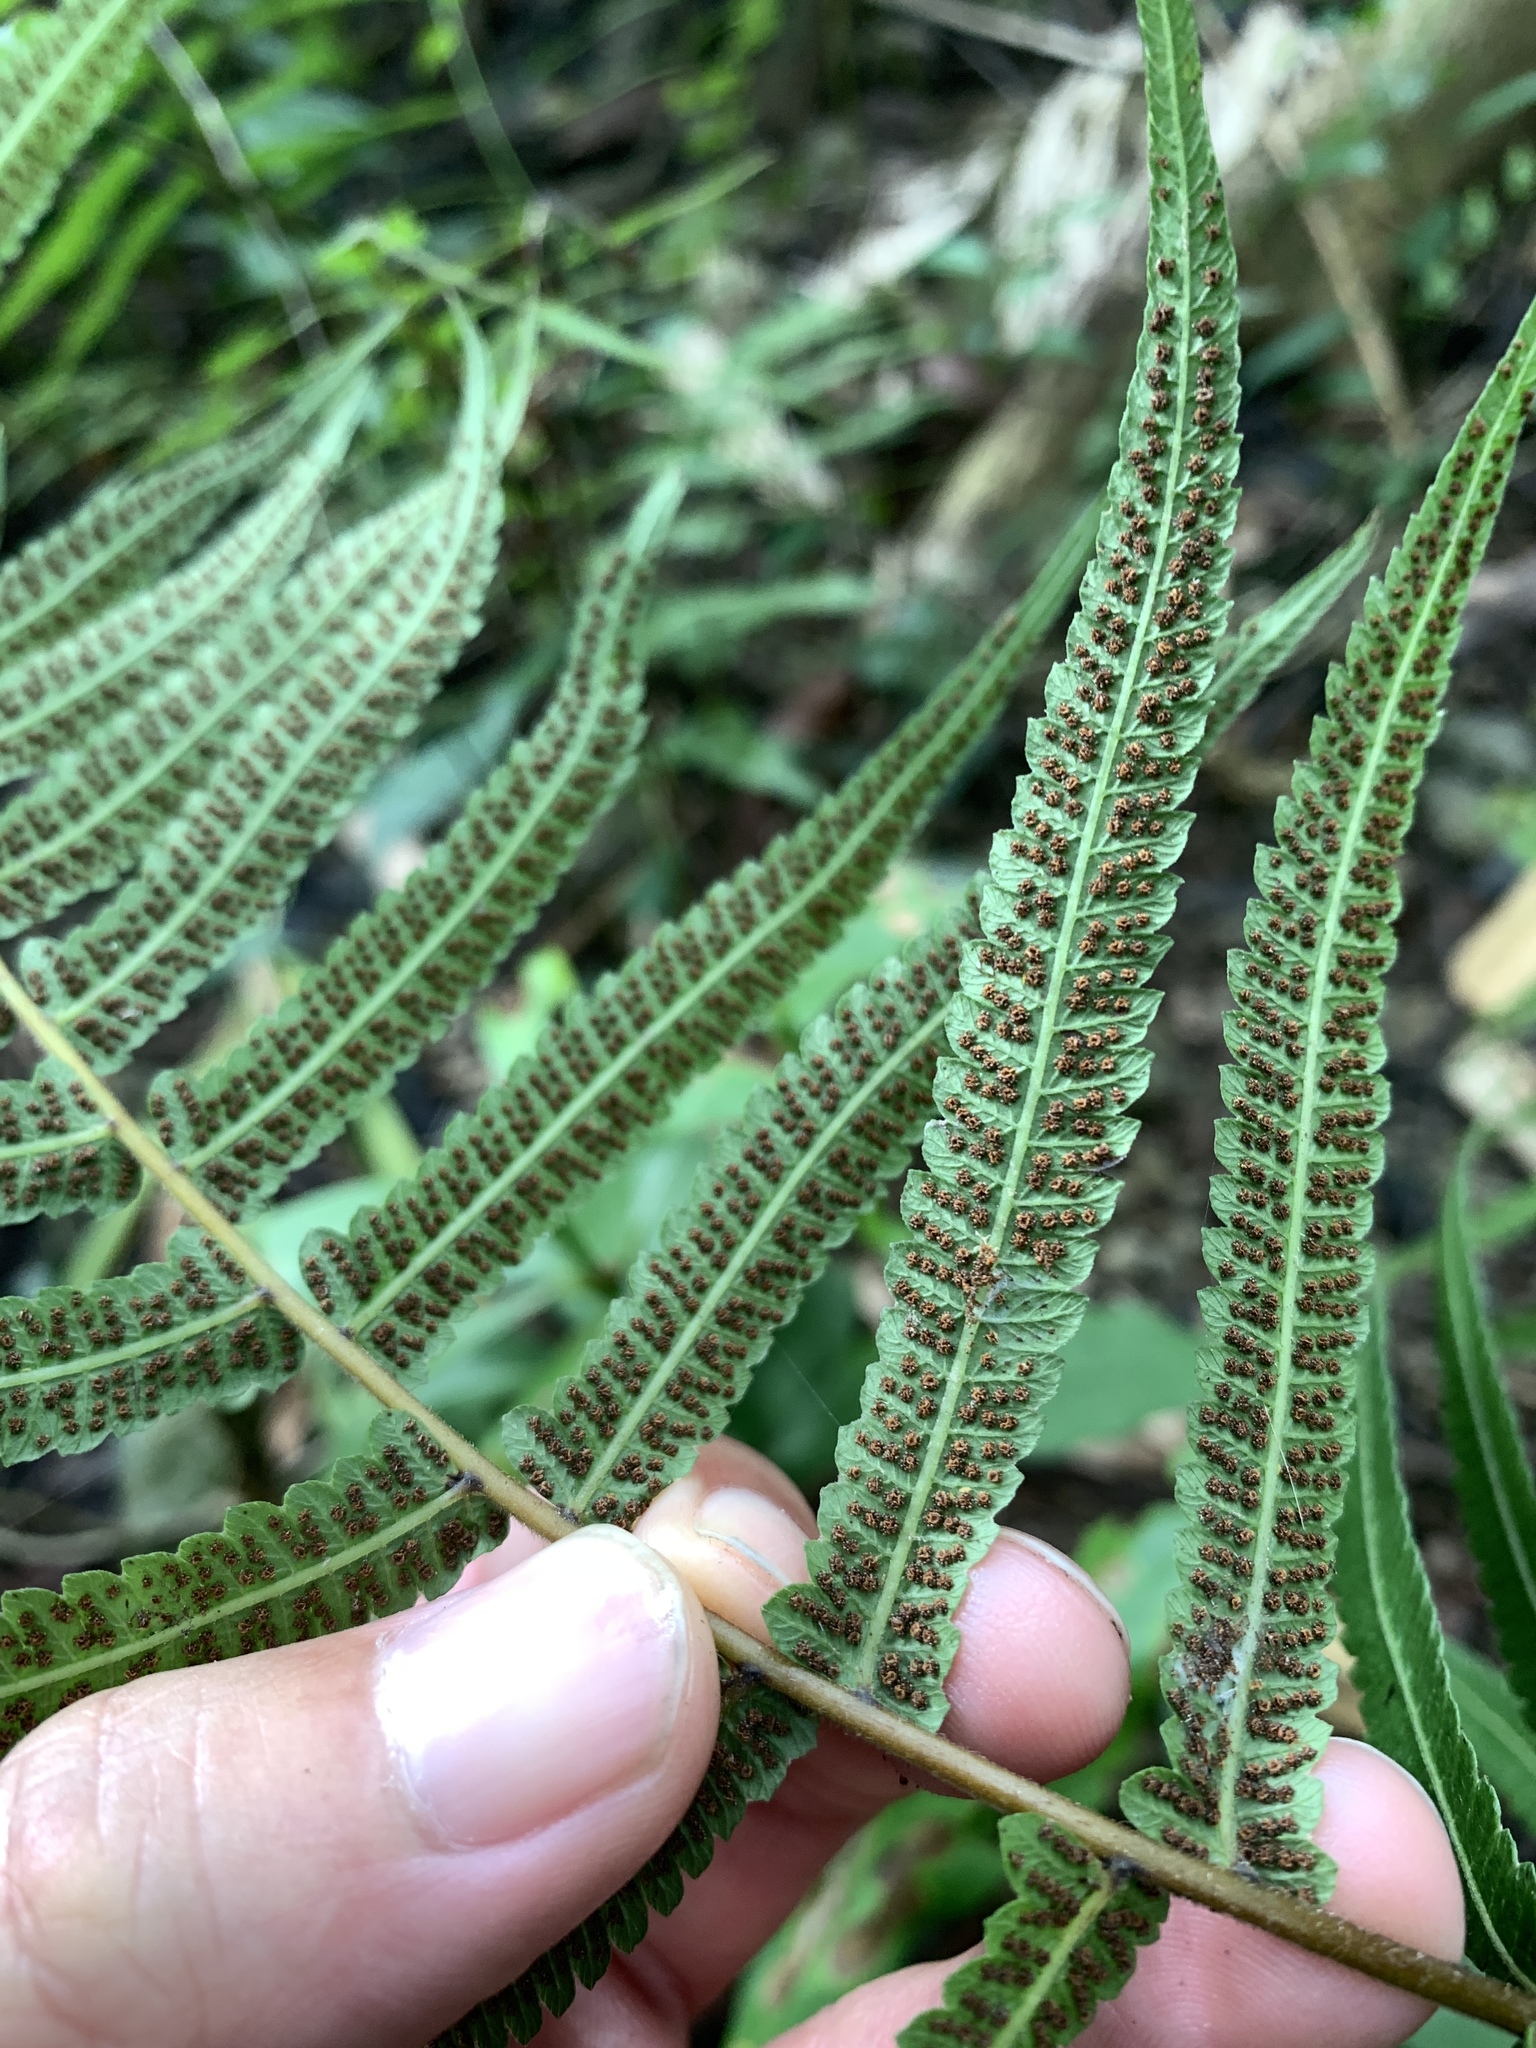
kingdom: Plantae
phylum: Tracheophyta
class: Polypodiopsida
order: Polypodiales
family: Thelypteridaceae
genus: Christella
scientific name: Christella acuminata
